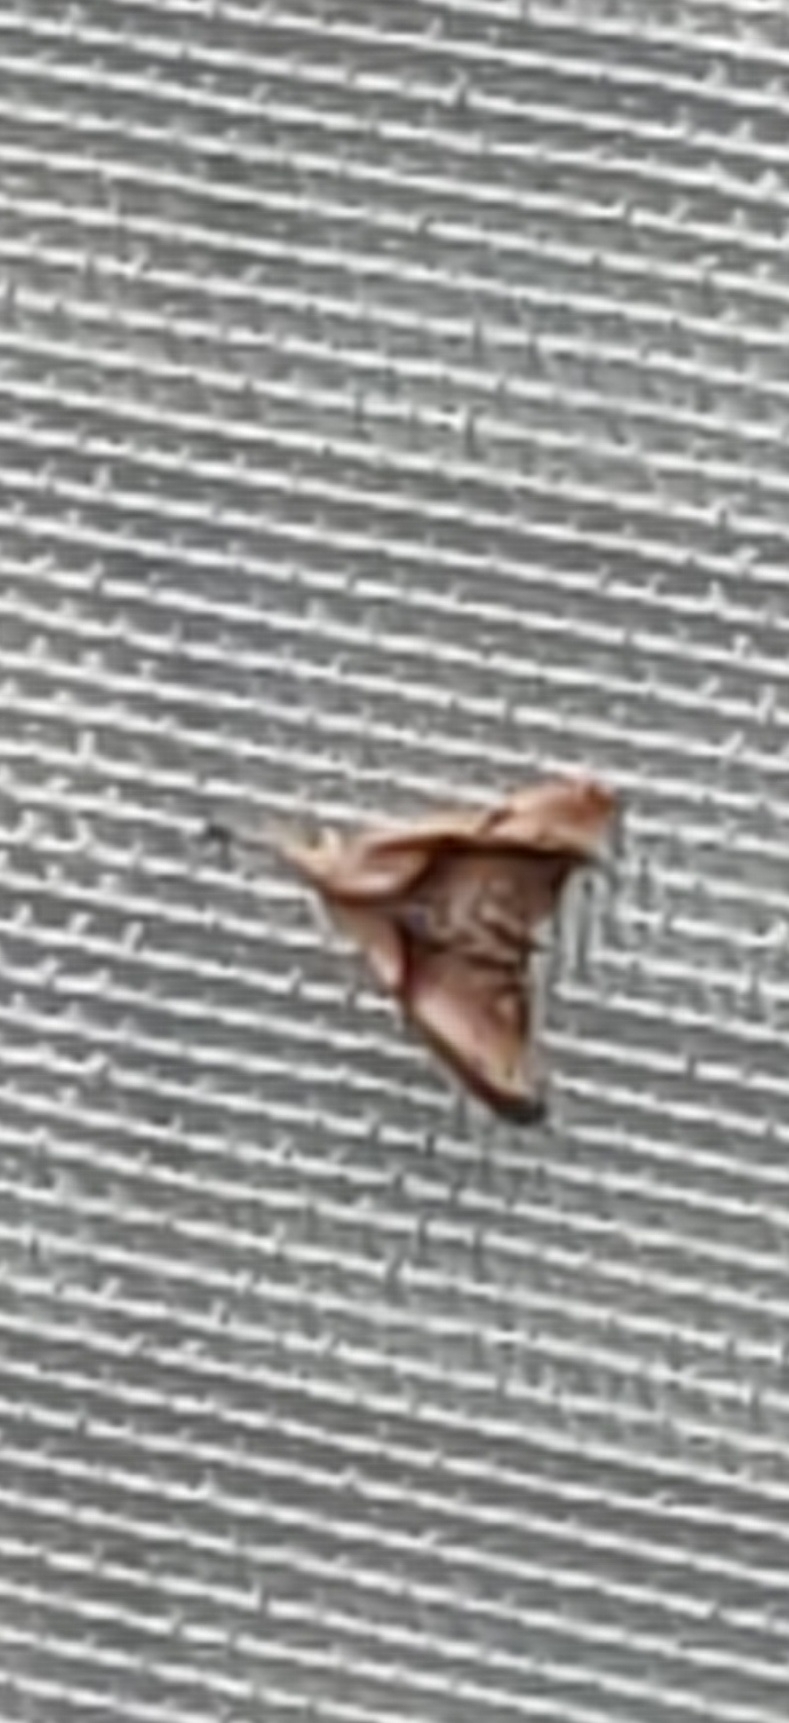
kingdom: Animalia
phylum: Arthropoda
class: Insecta
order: Lepidoptera
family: Erebidae
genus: Palthis
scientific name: Palthis angulalis
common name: Dark-spotted palthis moth
